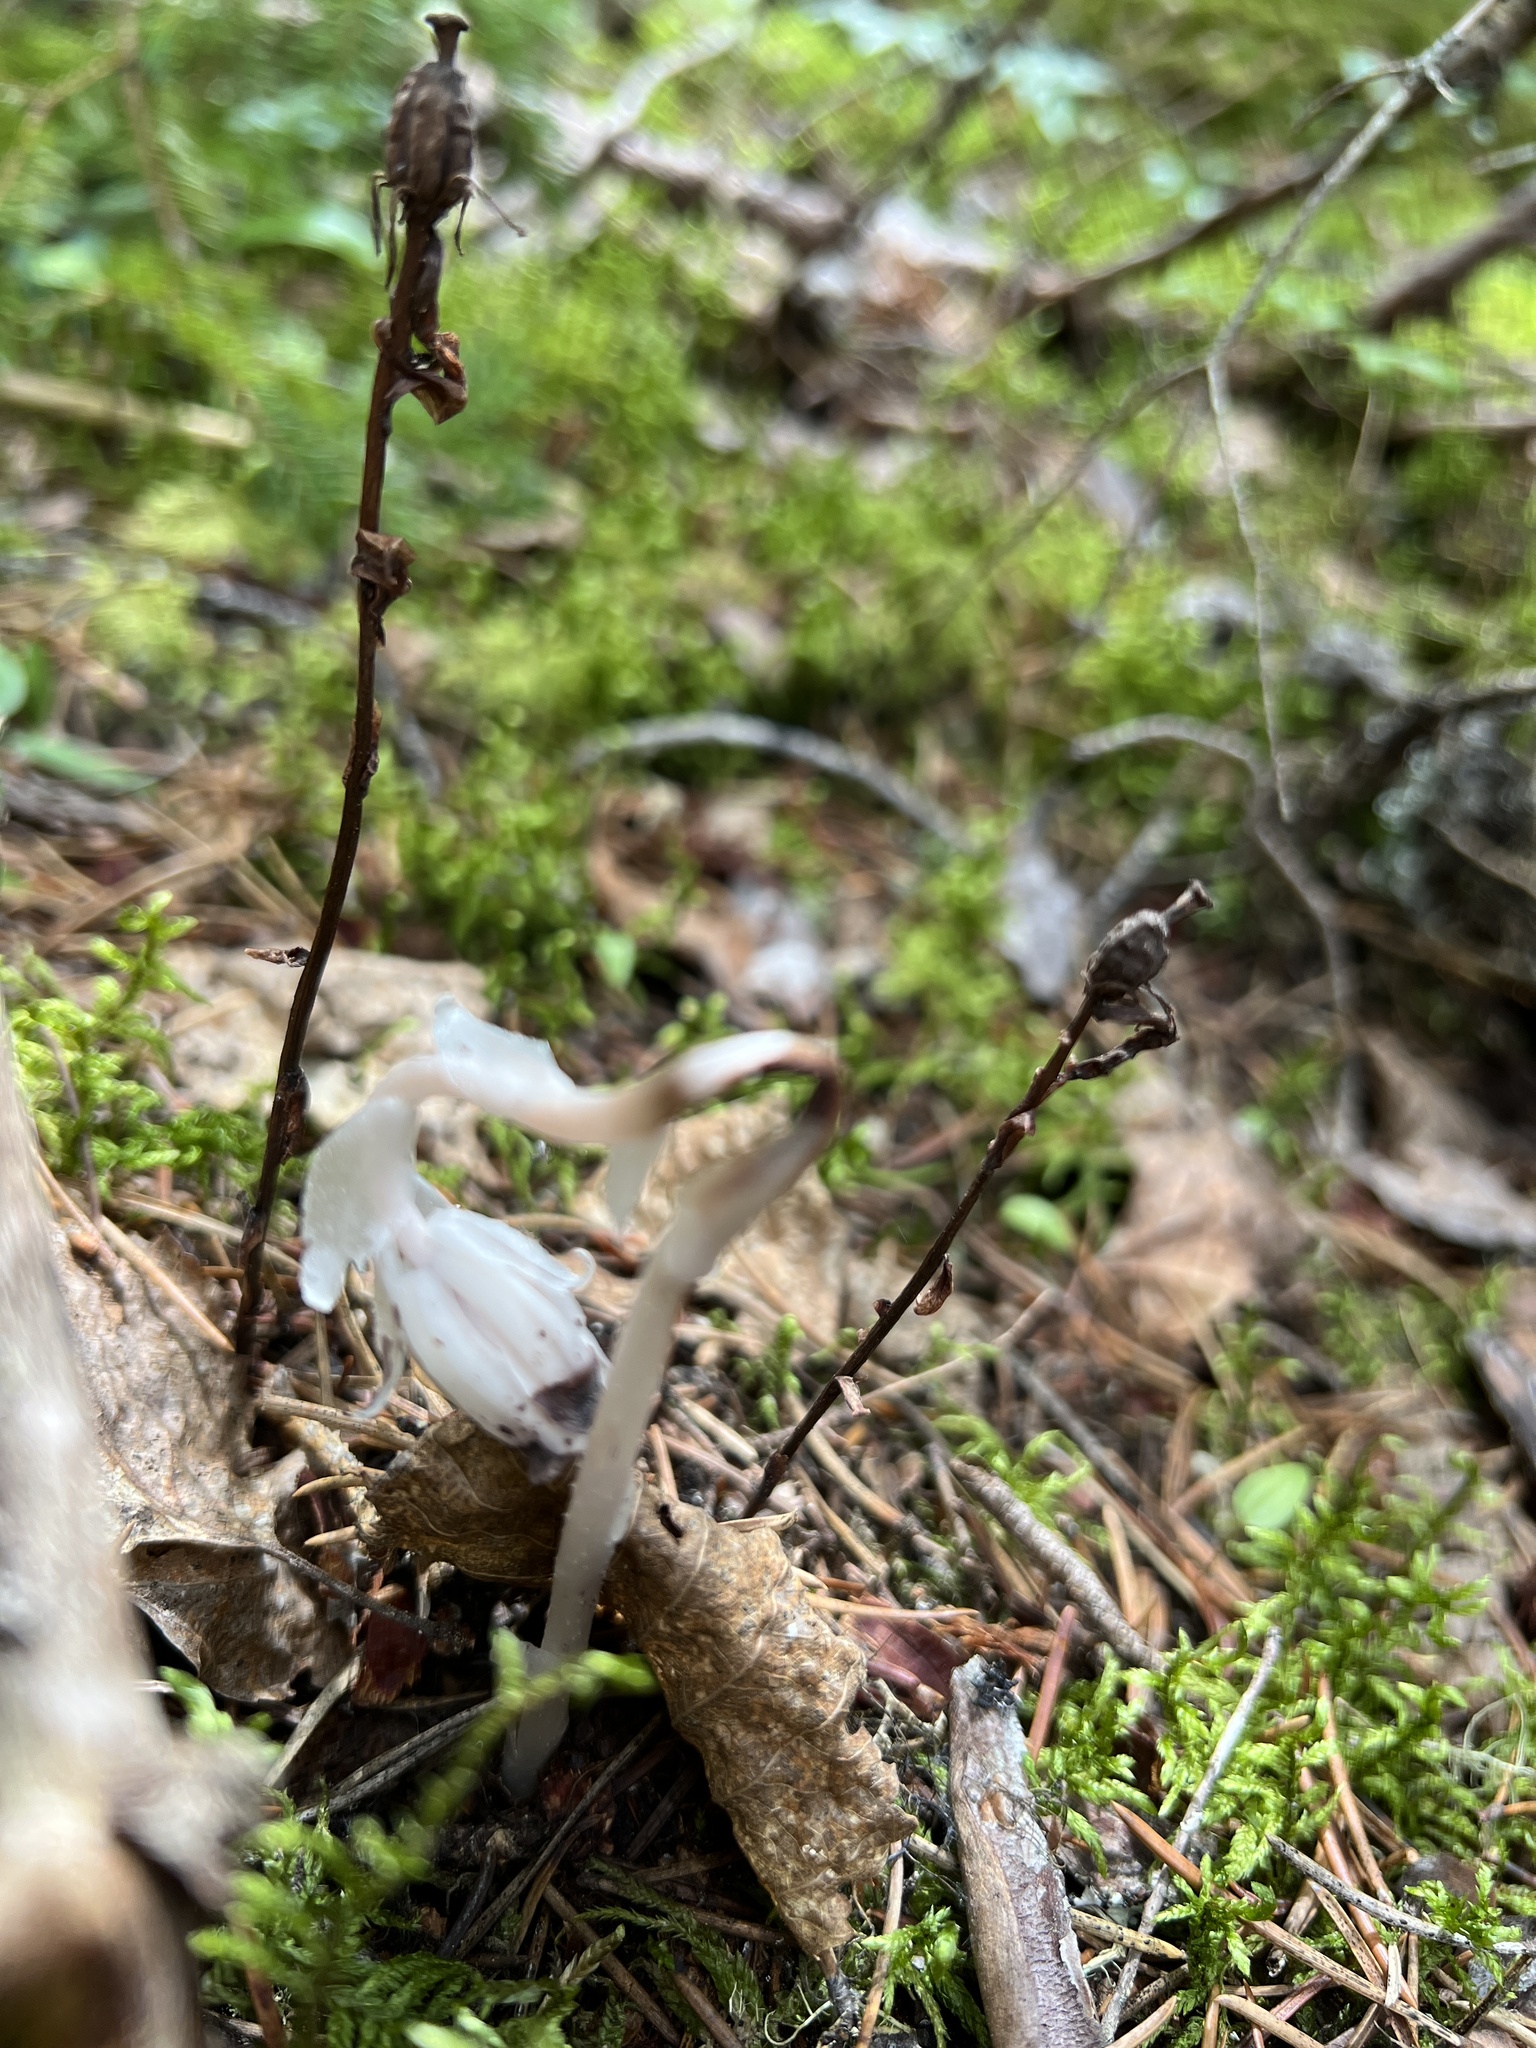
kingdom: Plantae
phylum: Tracheophyta
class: Magnoliopsida
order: Ericales
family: Ericaceae
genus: Monotropa
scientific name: Monotropa uniflora
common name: Convulsion root
